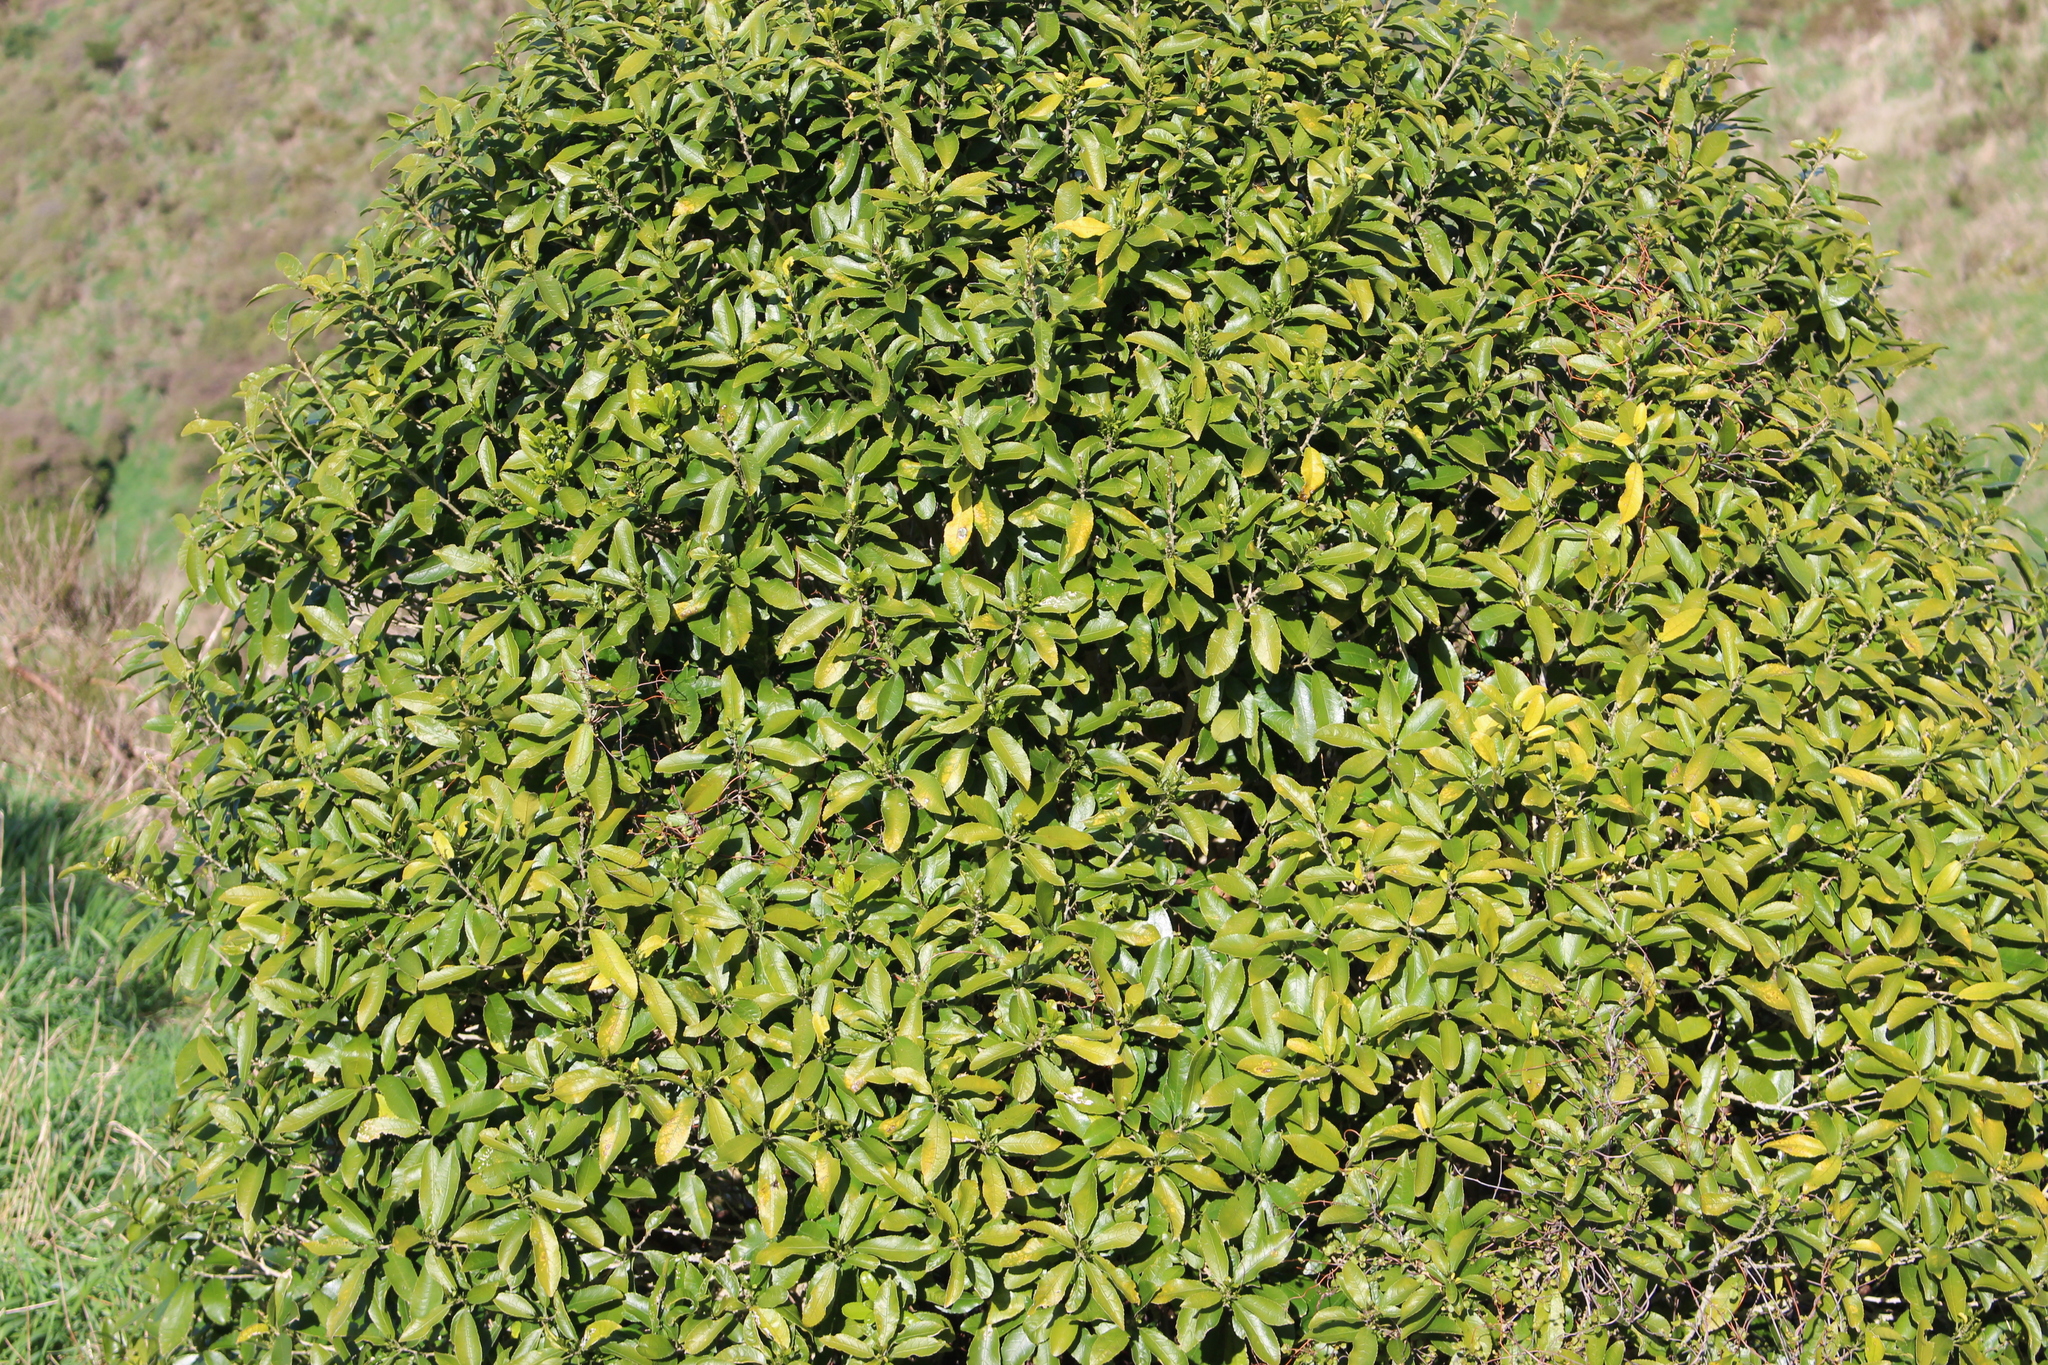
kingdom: Plantae
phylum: Tracheophyta
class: Magnoliopsida
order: Malpighiales
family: Violaceae
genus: Melicytus
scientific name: Melicytus ramiflorus
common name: Mahoe
